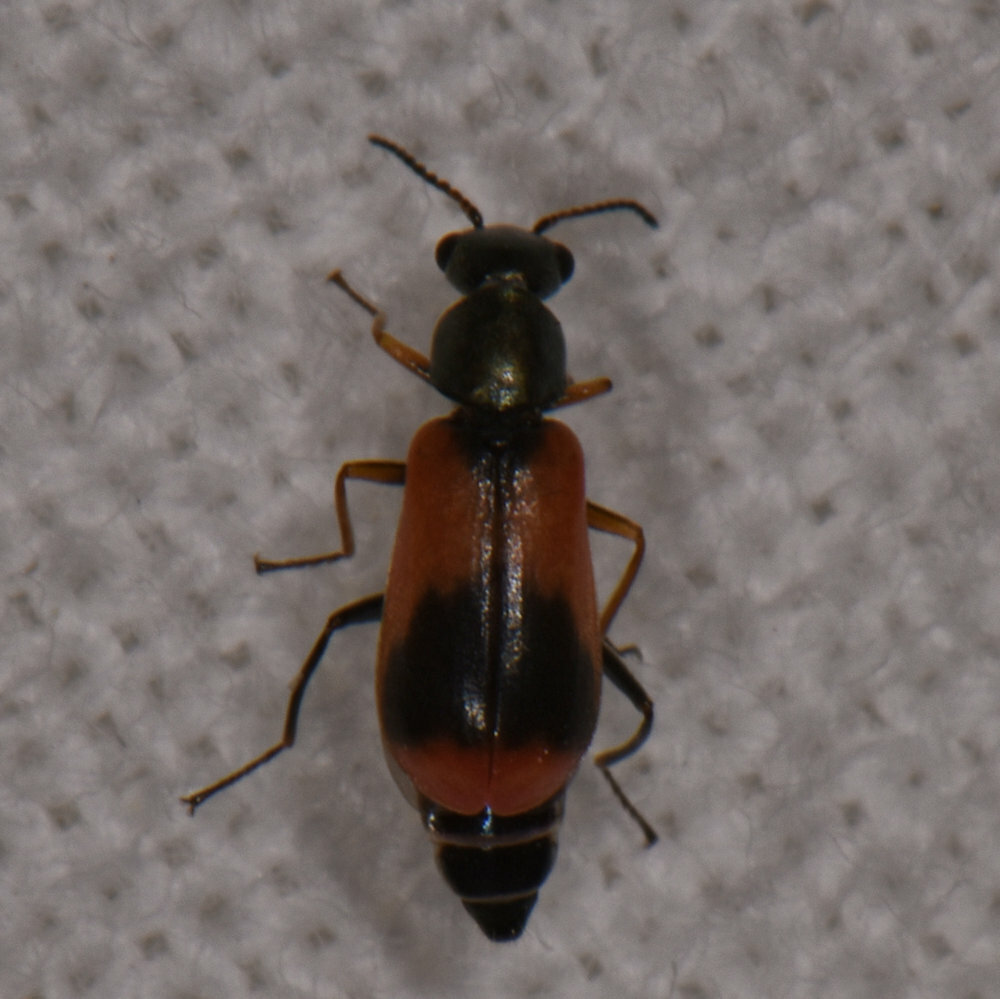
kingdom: Animalia
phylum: Arthropoda
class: Insecta
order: Coleoptera
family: Melyridae
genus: Anthocomus
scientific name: Anthocomus equestris
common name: Black-banded soft-winged flower beetle
